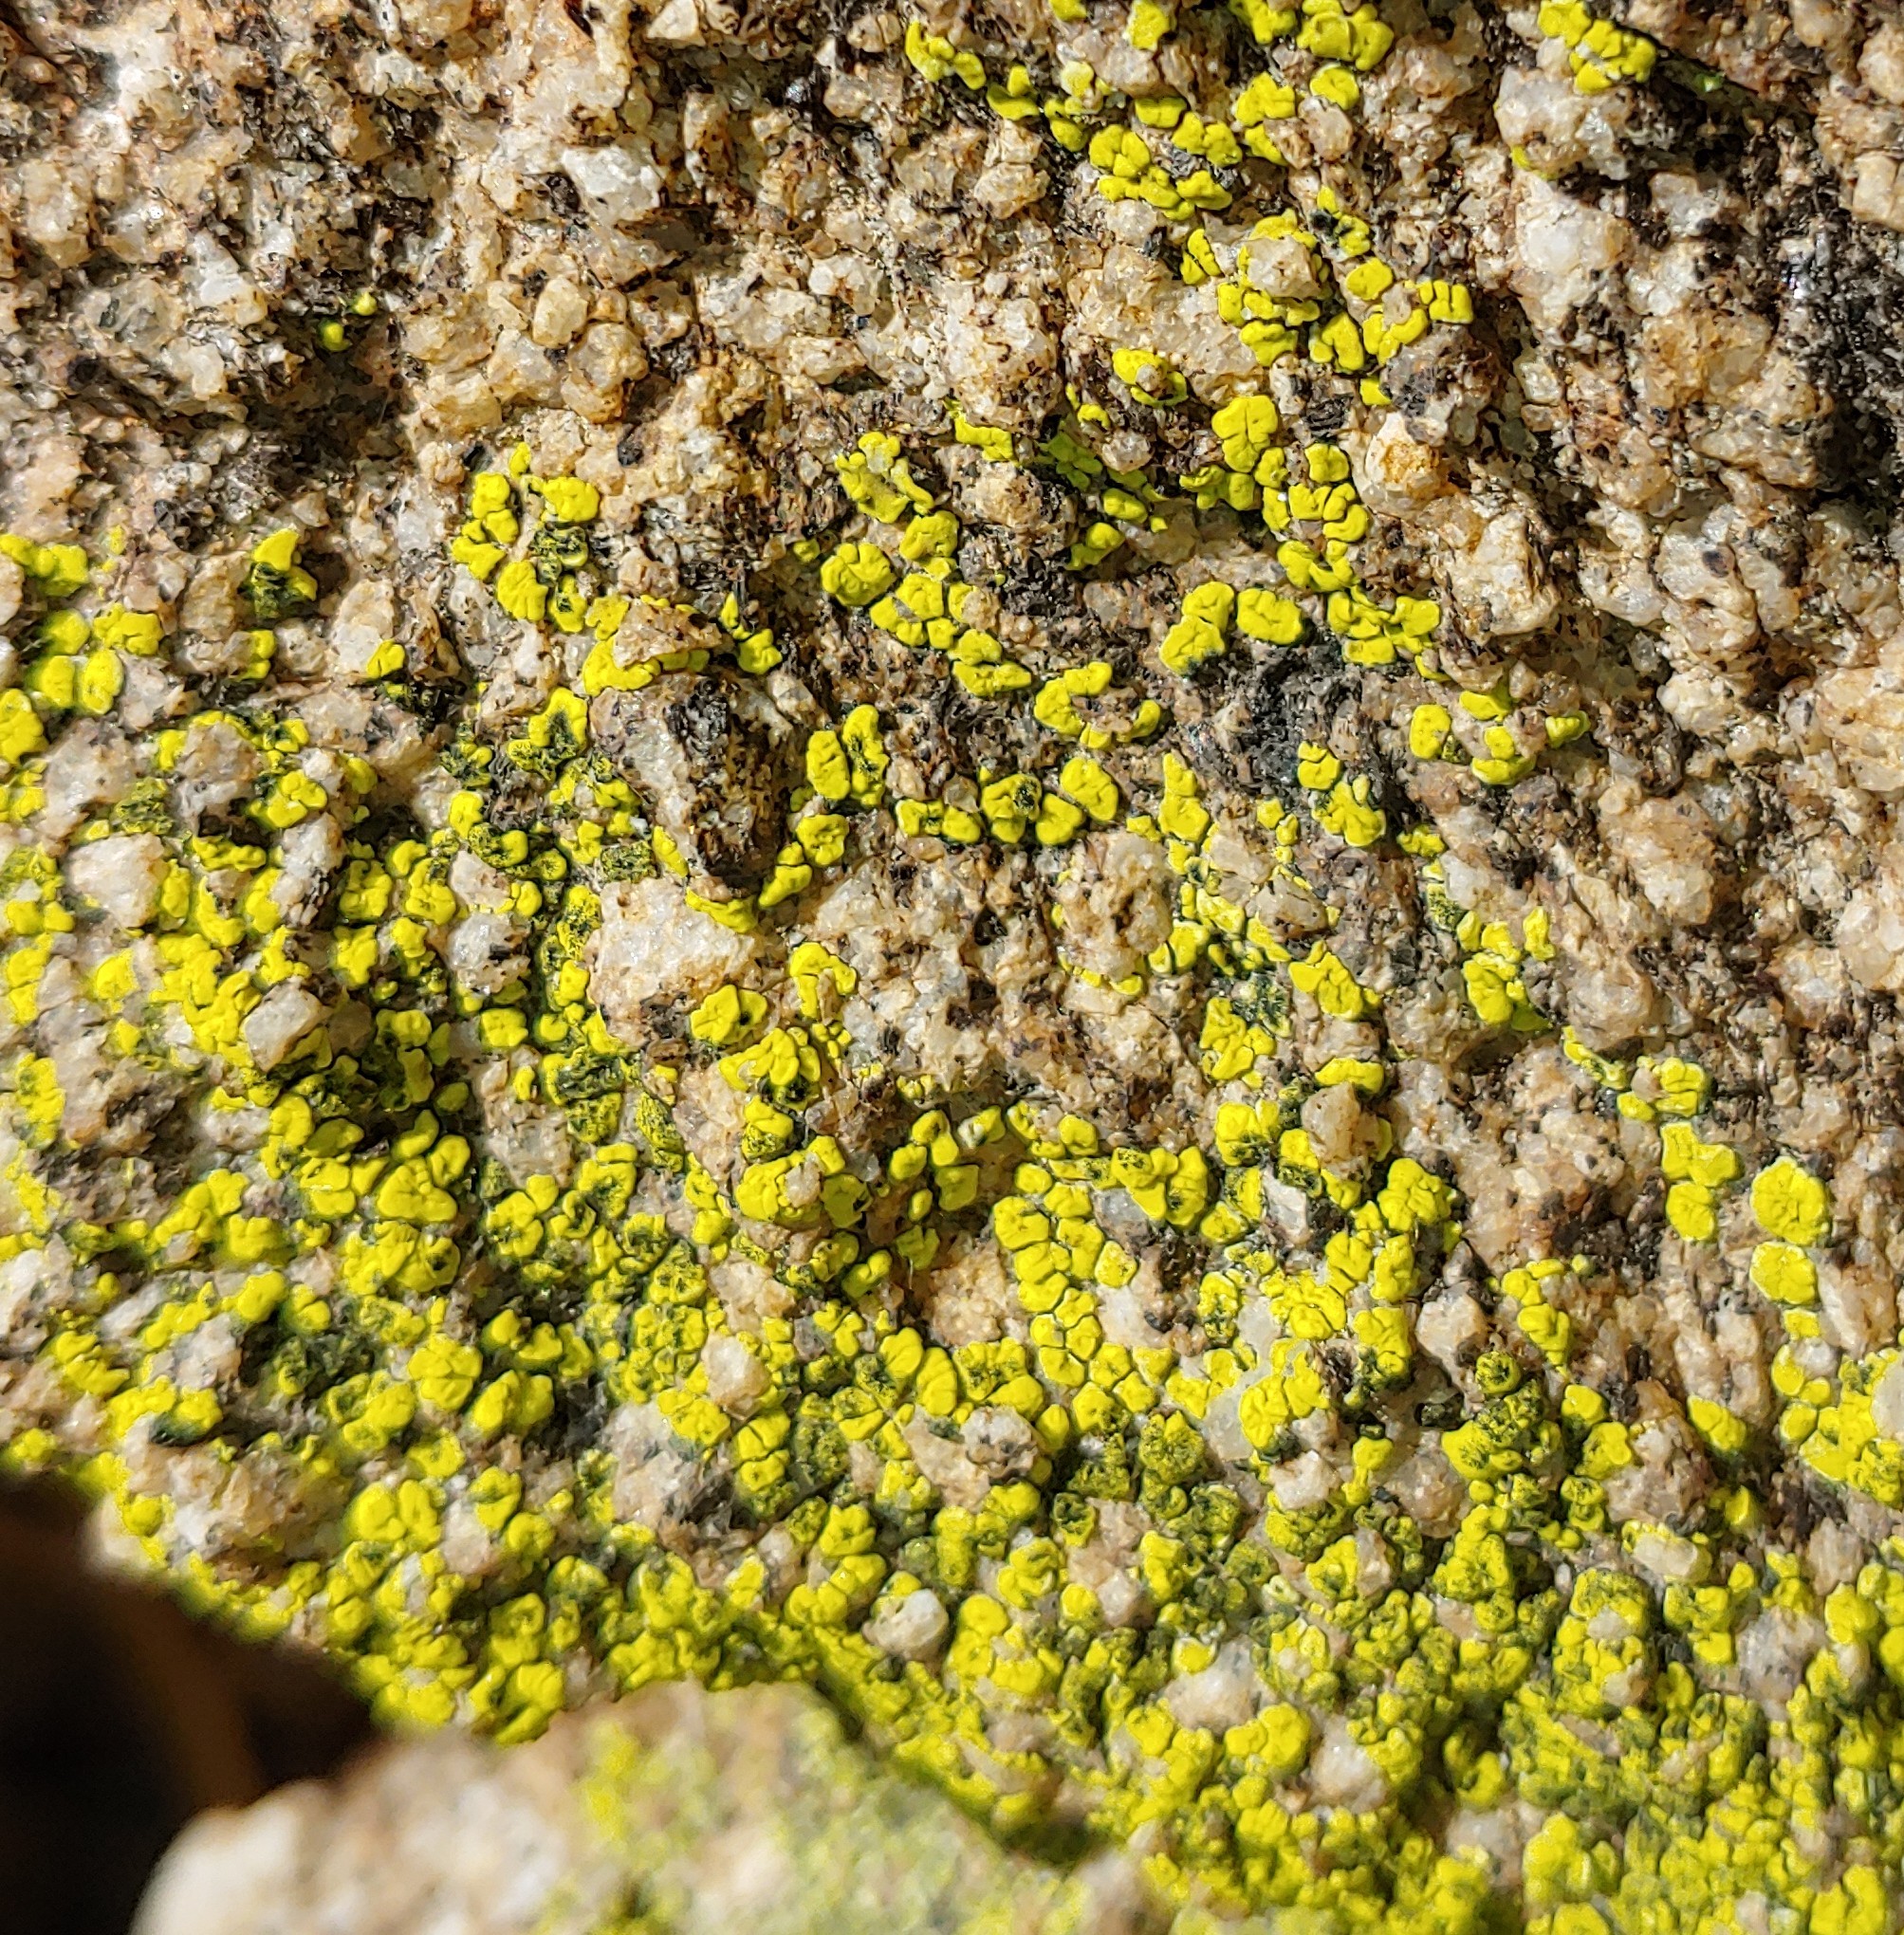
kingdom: Fungi
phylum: Ascomycota
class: Lecanoromycetes
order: Acarosporales
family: Acarosporaceae
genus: Acarospora
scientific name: Acarospora socialis
